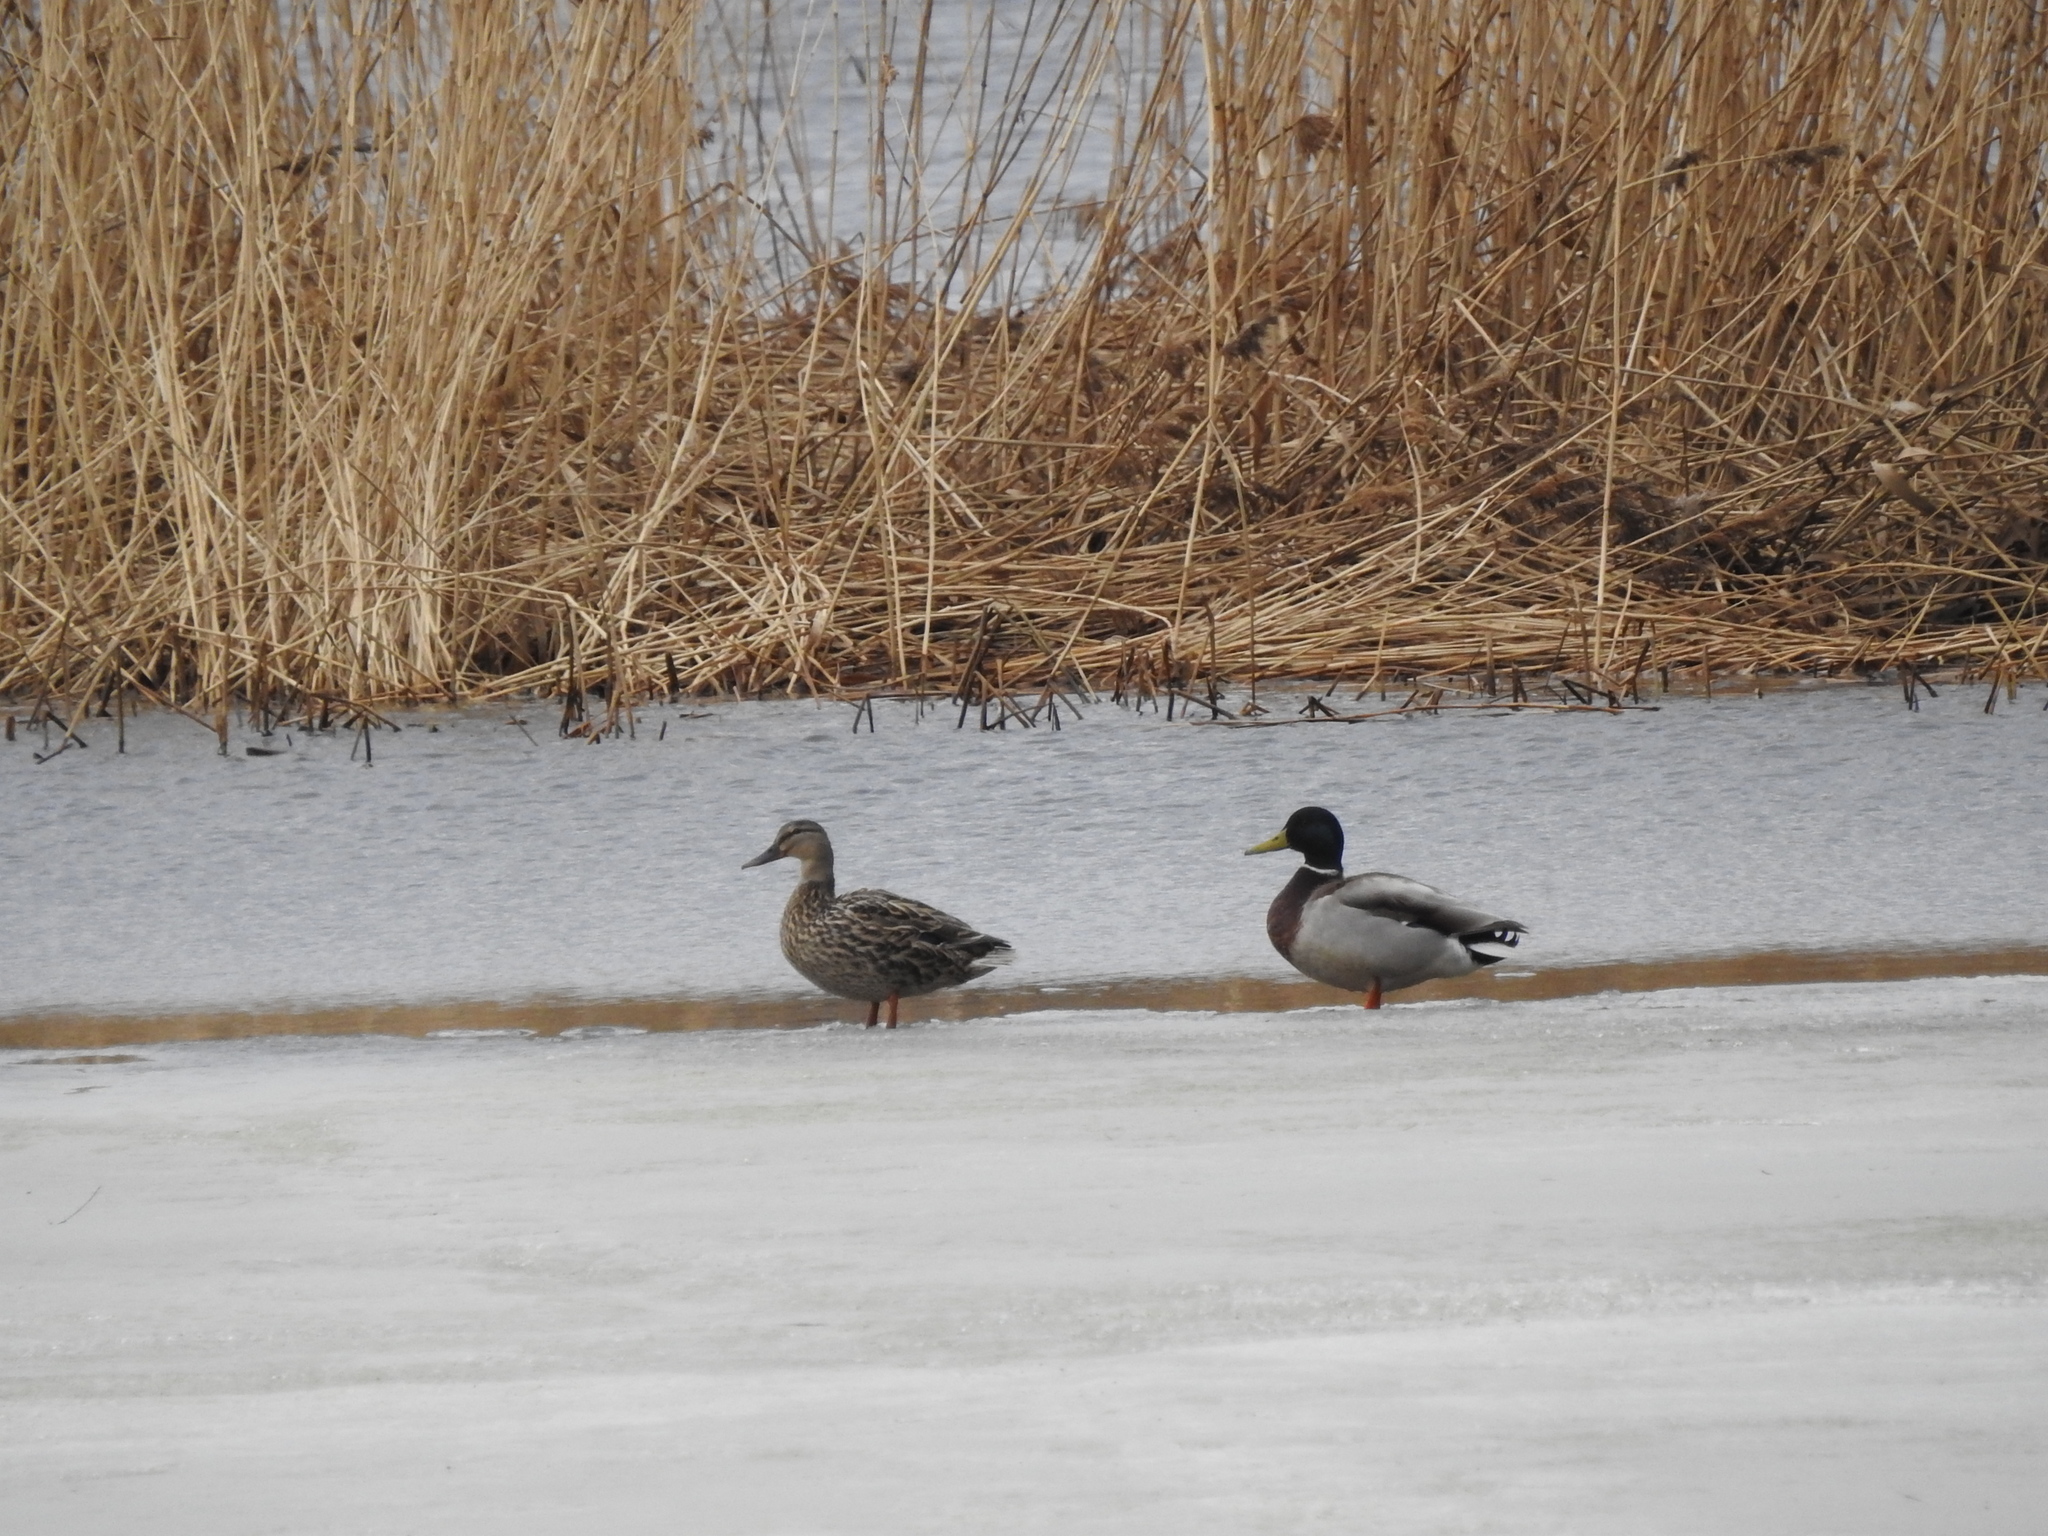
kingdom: Animalia
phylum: Chordata
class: Aves
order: Anseriformes
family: Anatidae
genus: Anas
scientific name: Anas platyrhynchos
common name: Mallard
